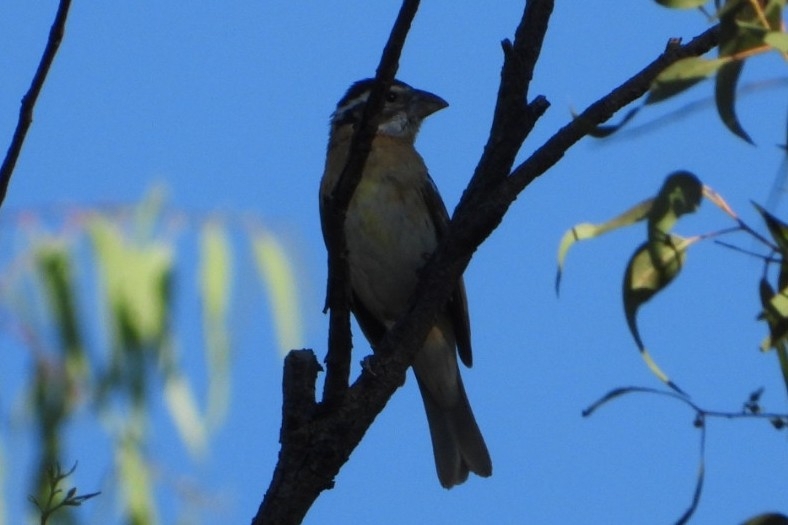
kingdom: Animalia
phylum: Chordata
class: Aves
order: Passeriformes
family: Cardinalidae
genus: Pheucticus
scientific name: Pheucticus melanocephalus
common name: Black-headed grosbeak
